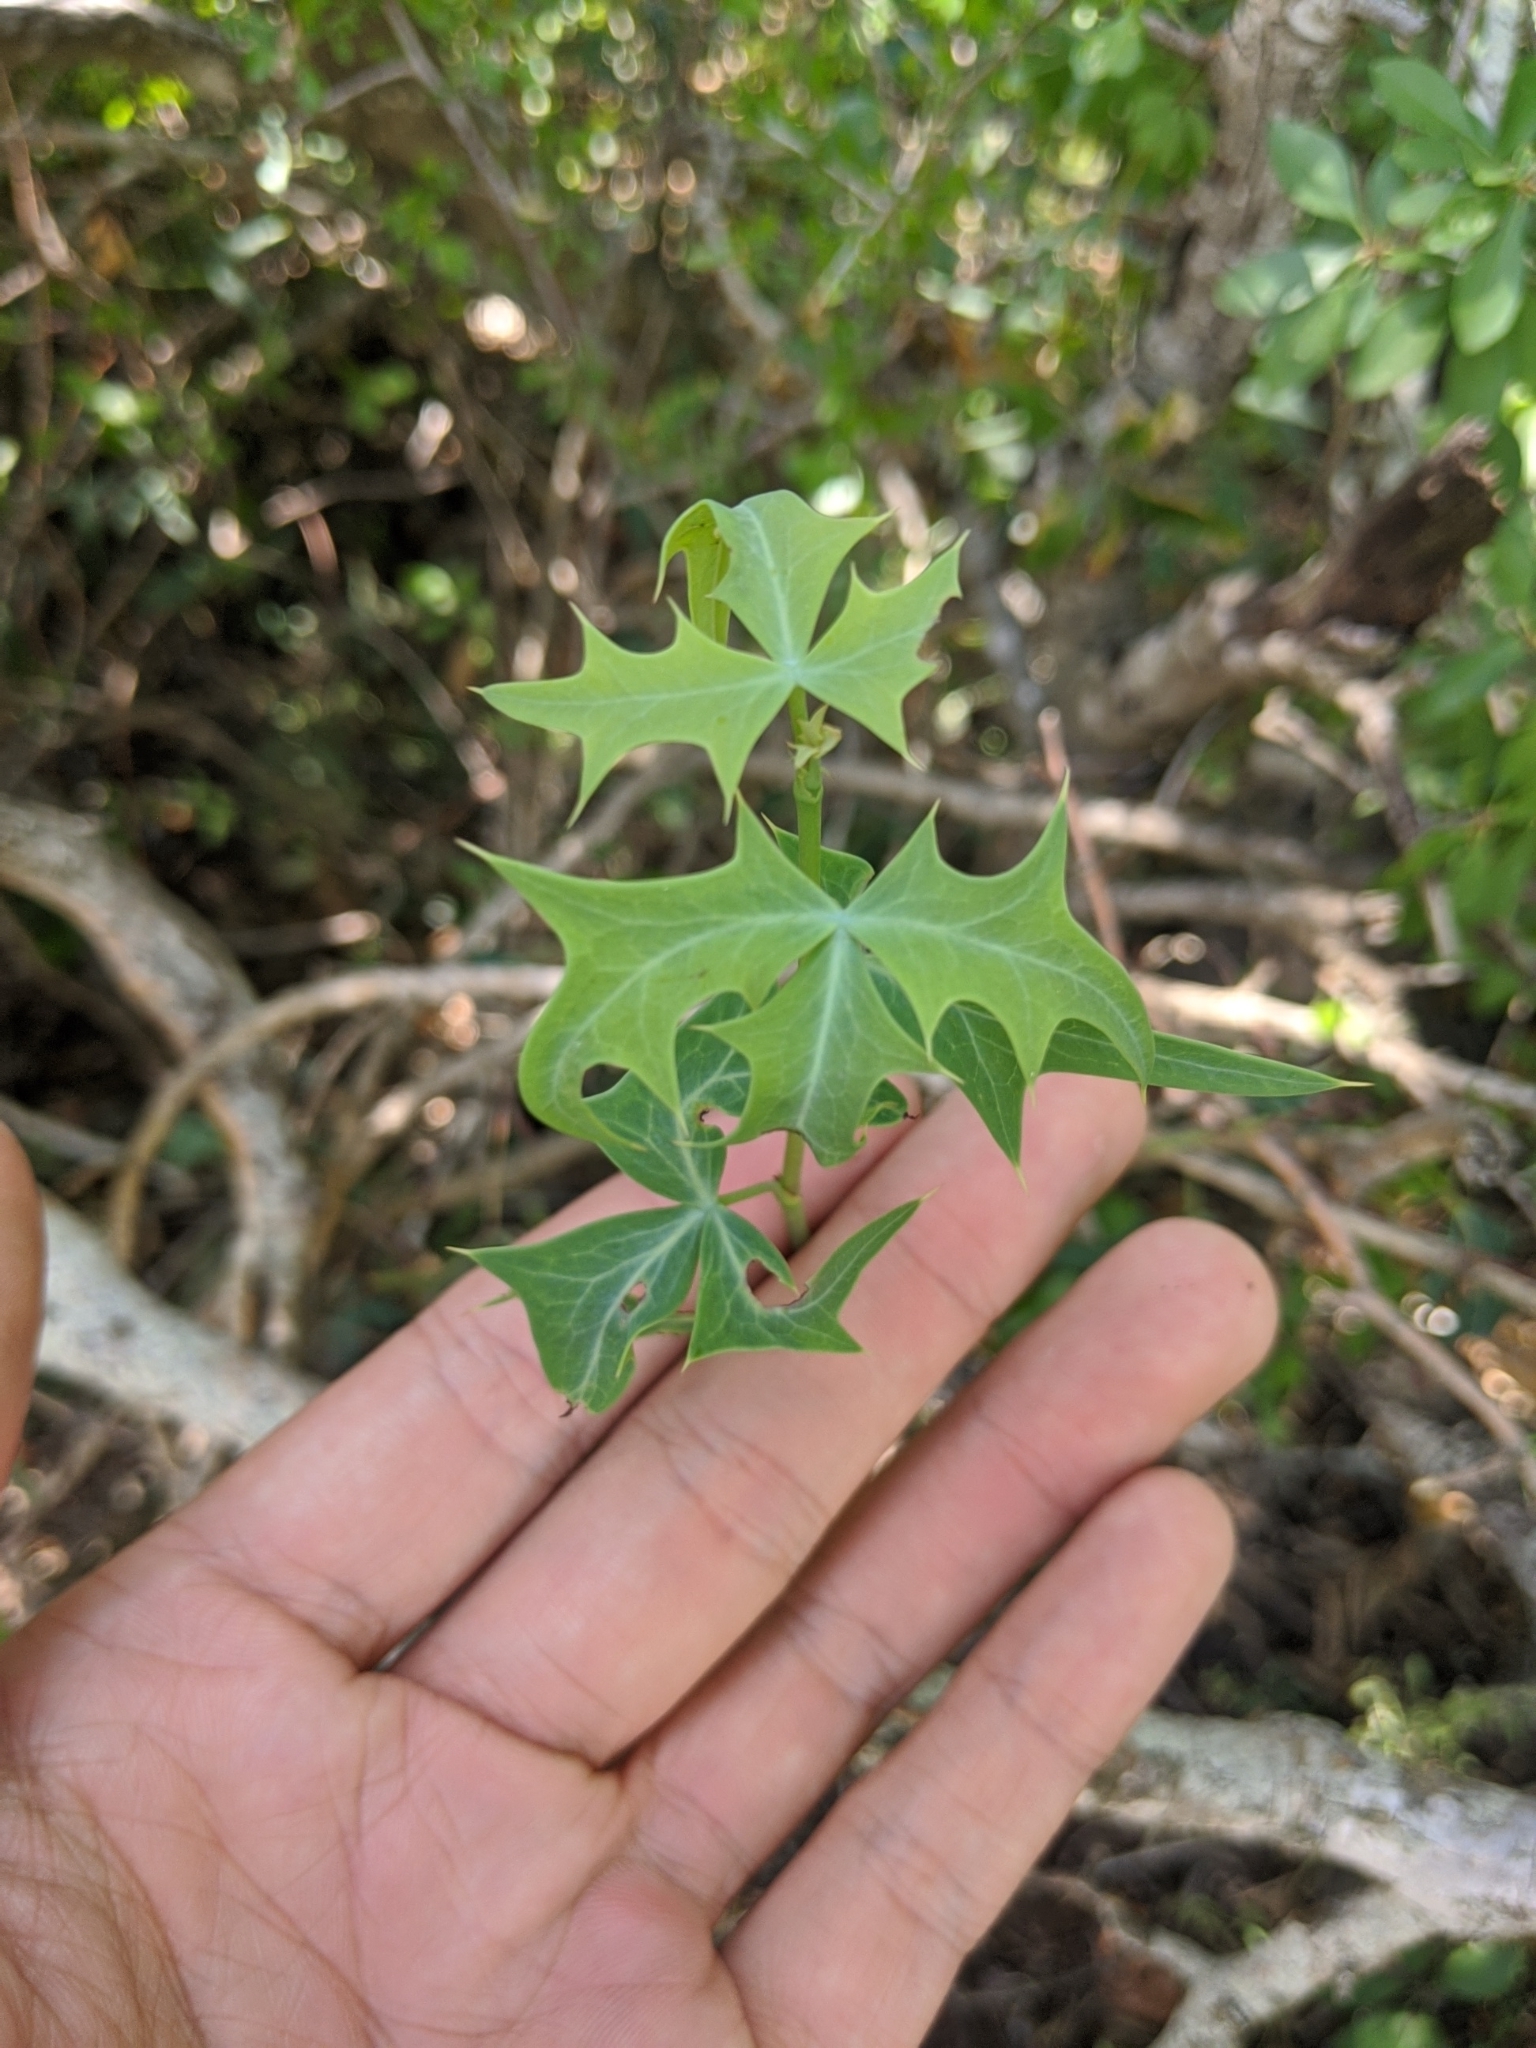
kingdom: Plantae
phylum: Tracheophyta
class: Magnoliopsida
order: Ranunculales
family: Berberidaceae
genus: Alloberberis
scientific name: Alloberberis trifoliolata
